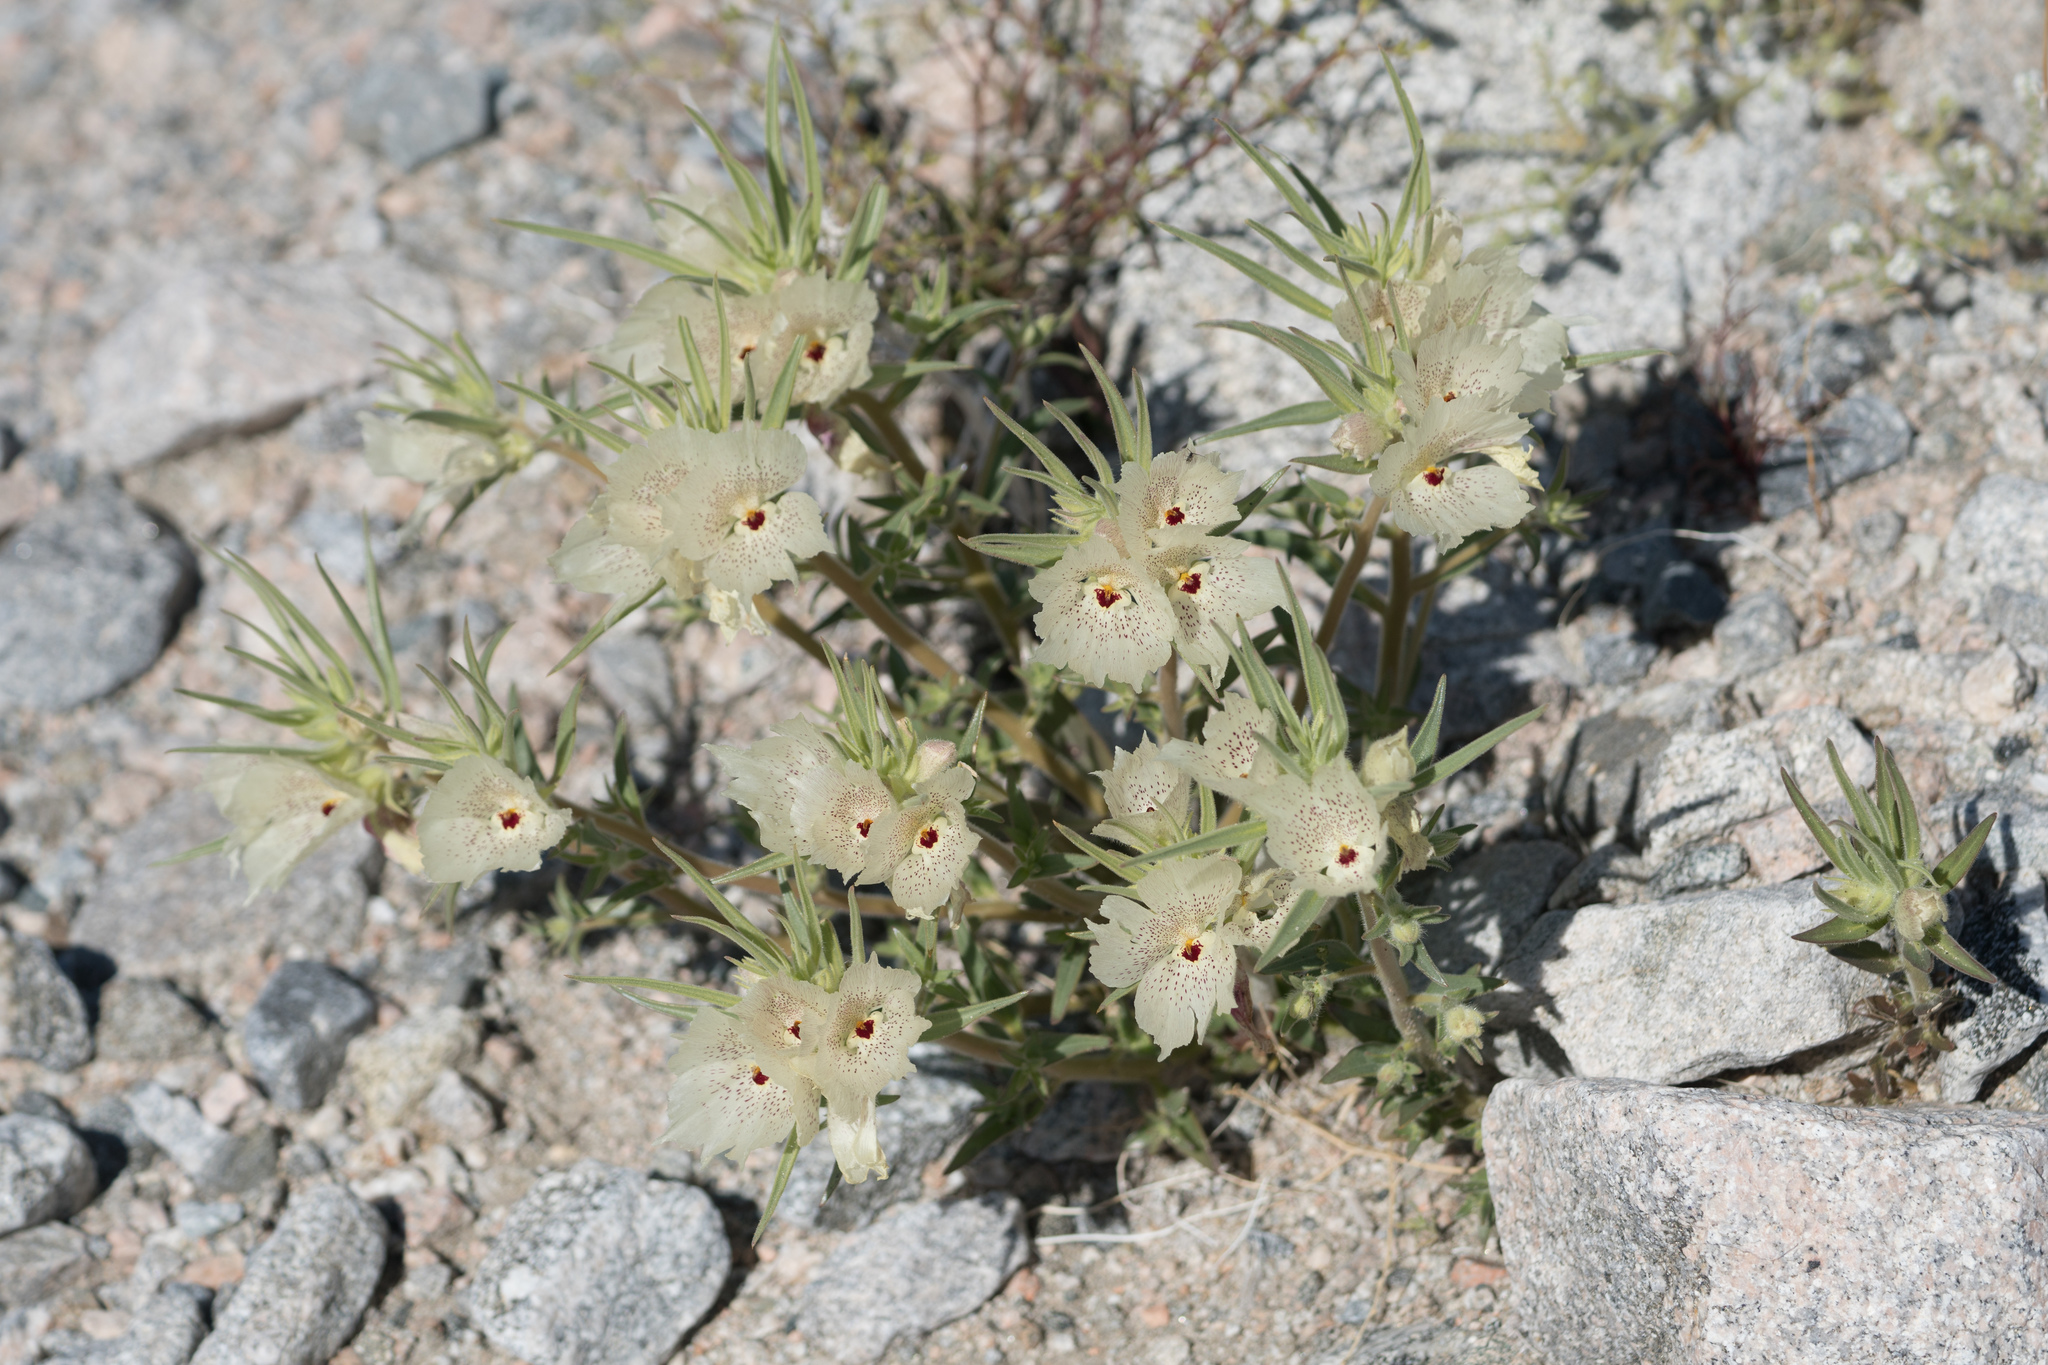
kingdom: Plantae
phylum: Tracheophyta
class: Magnoliopsida
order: Lamiales
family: Plantaginaceae
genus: Mohavea
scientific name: Mohavea confertiflora
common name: Ghost flower
